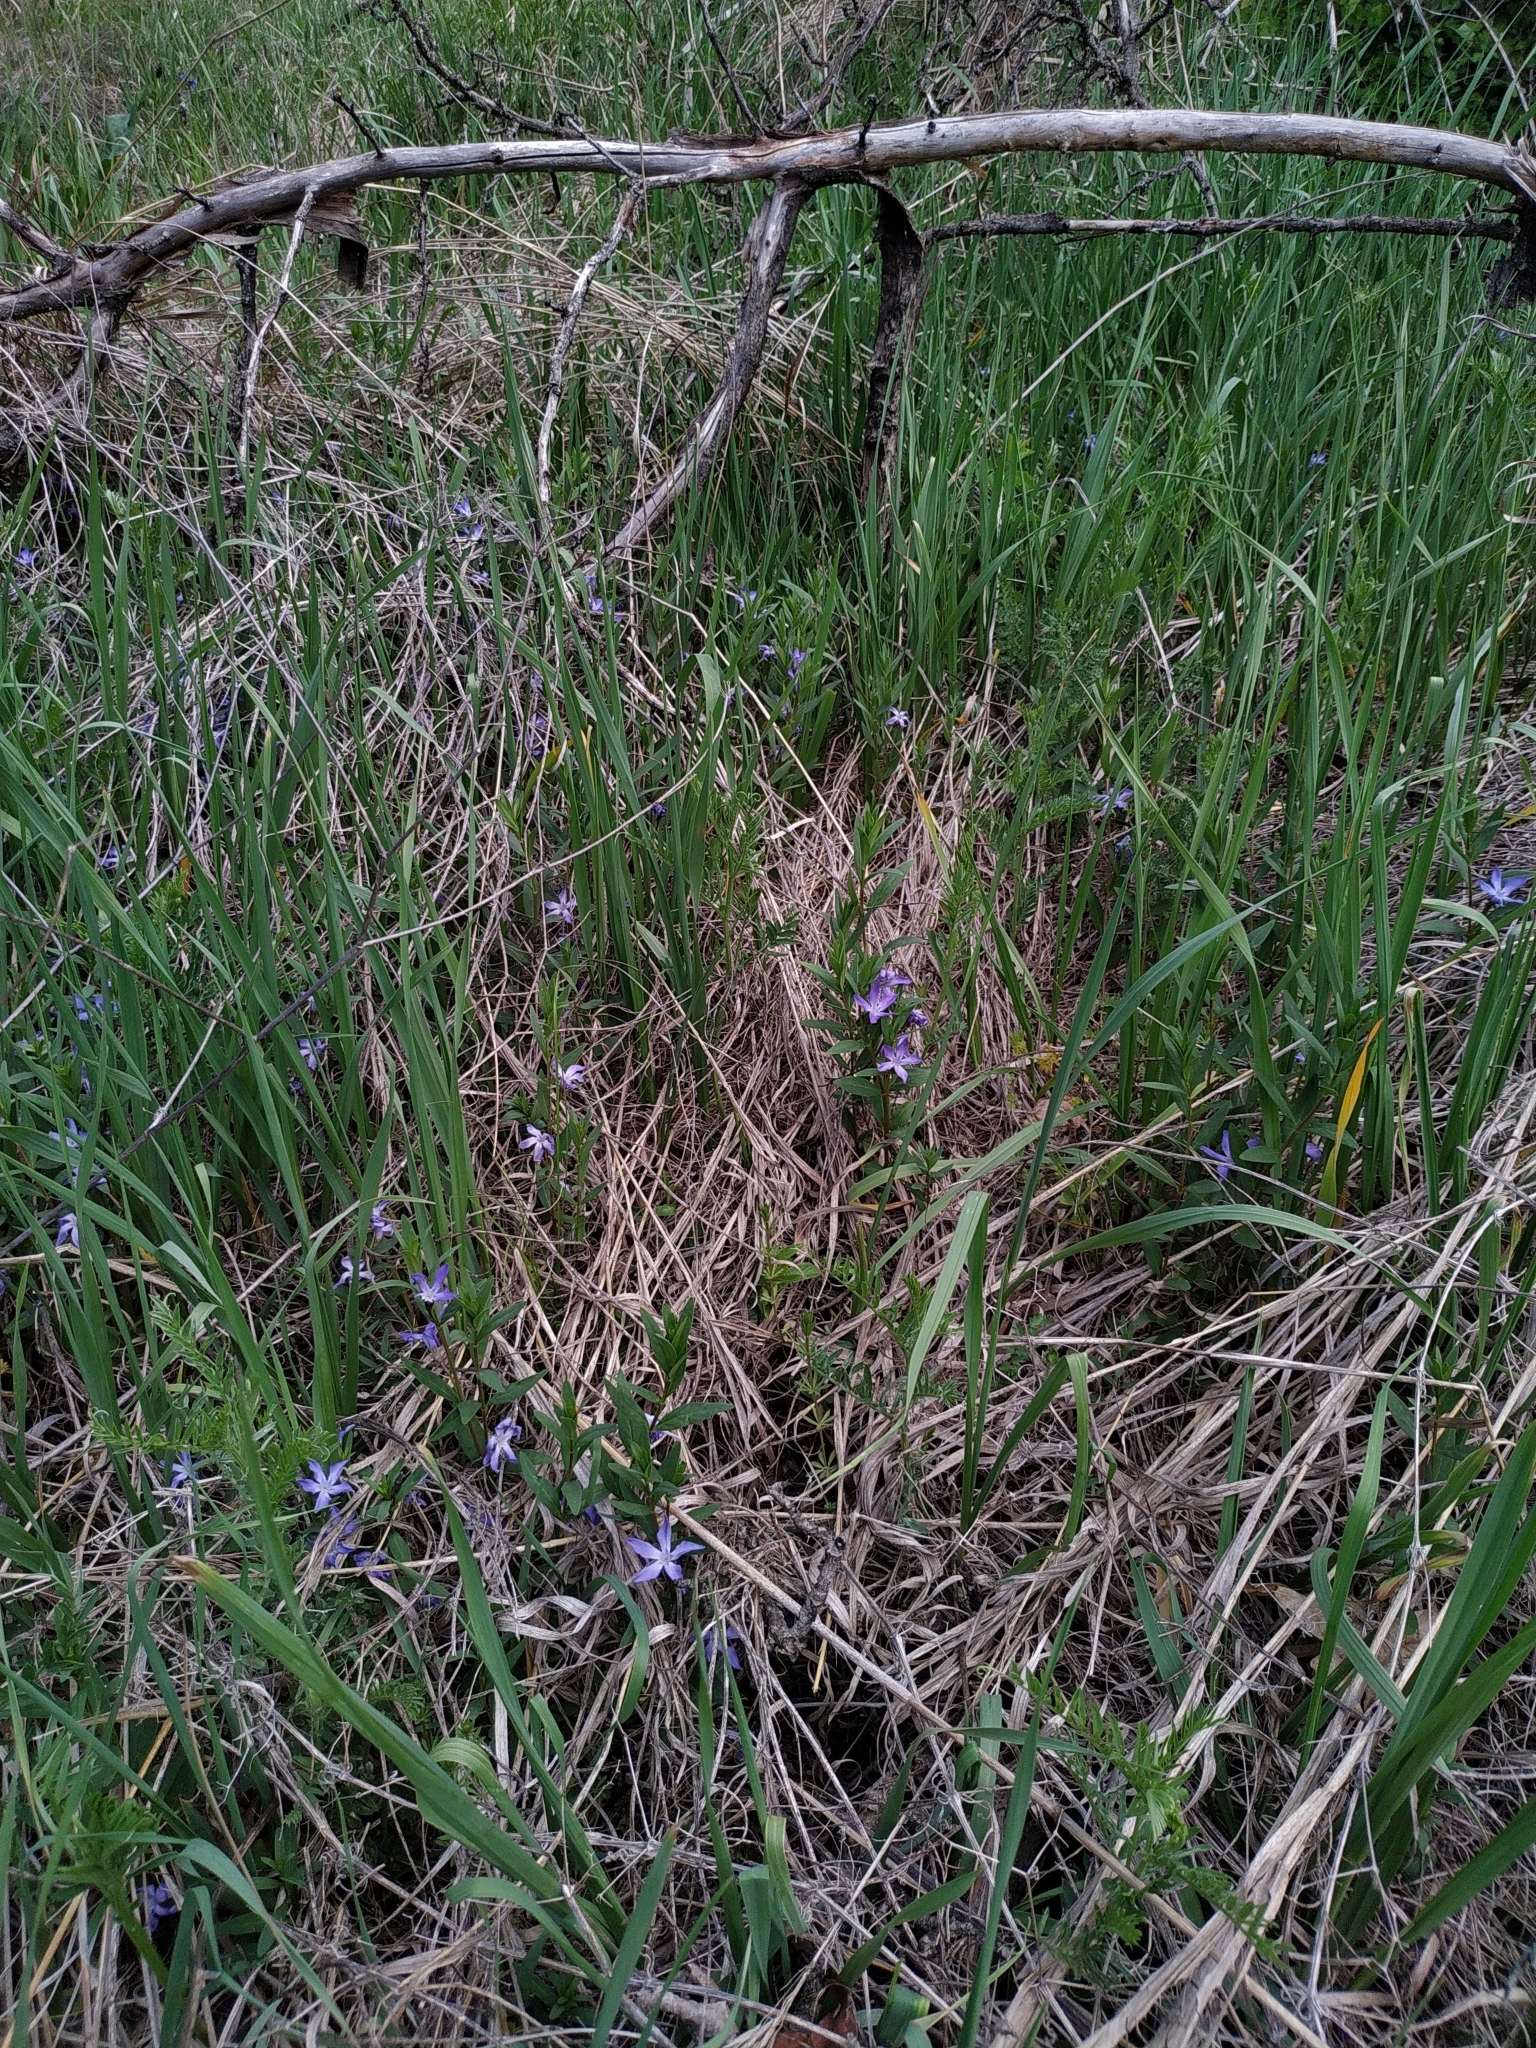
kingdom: Plantae
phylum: Tracheophyta
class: Magnoliopsida
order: Gentianales
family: Apocynaceae
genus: Vinca
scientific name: Vinca herbacea
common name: Herbaceous periwinkle
